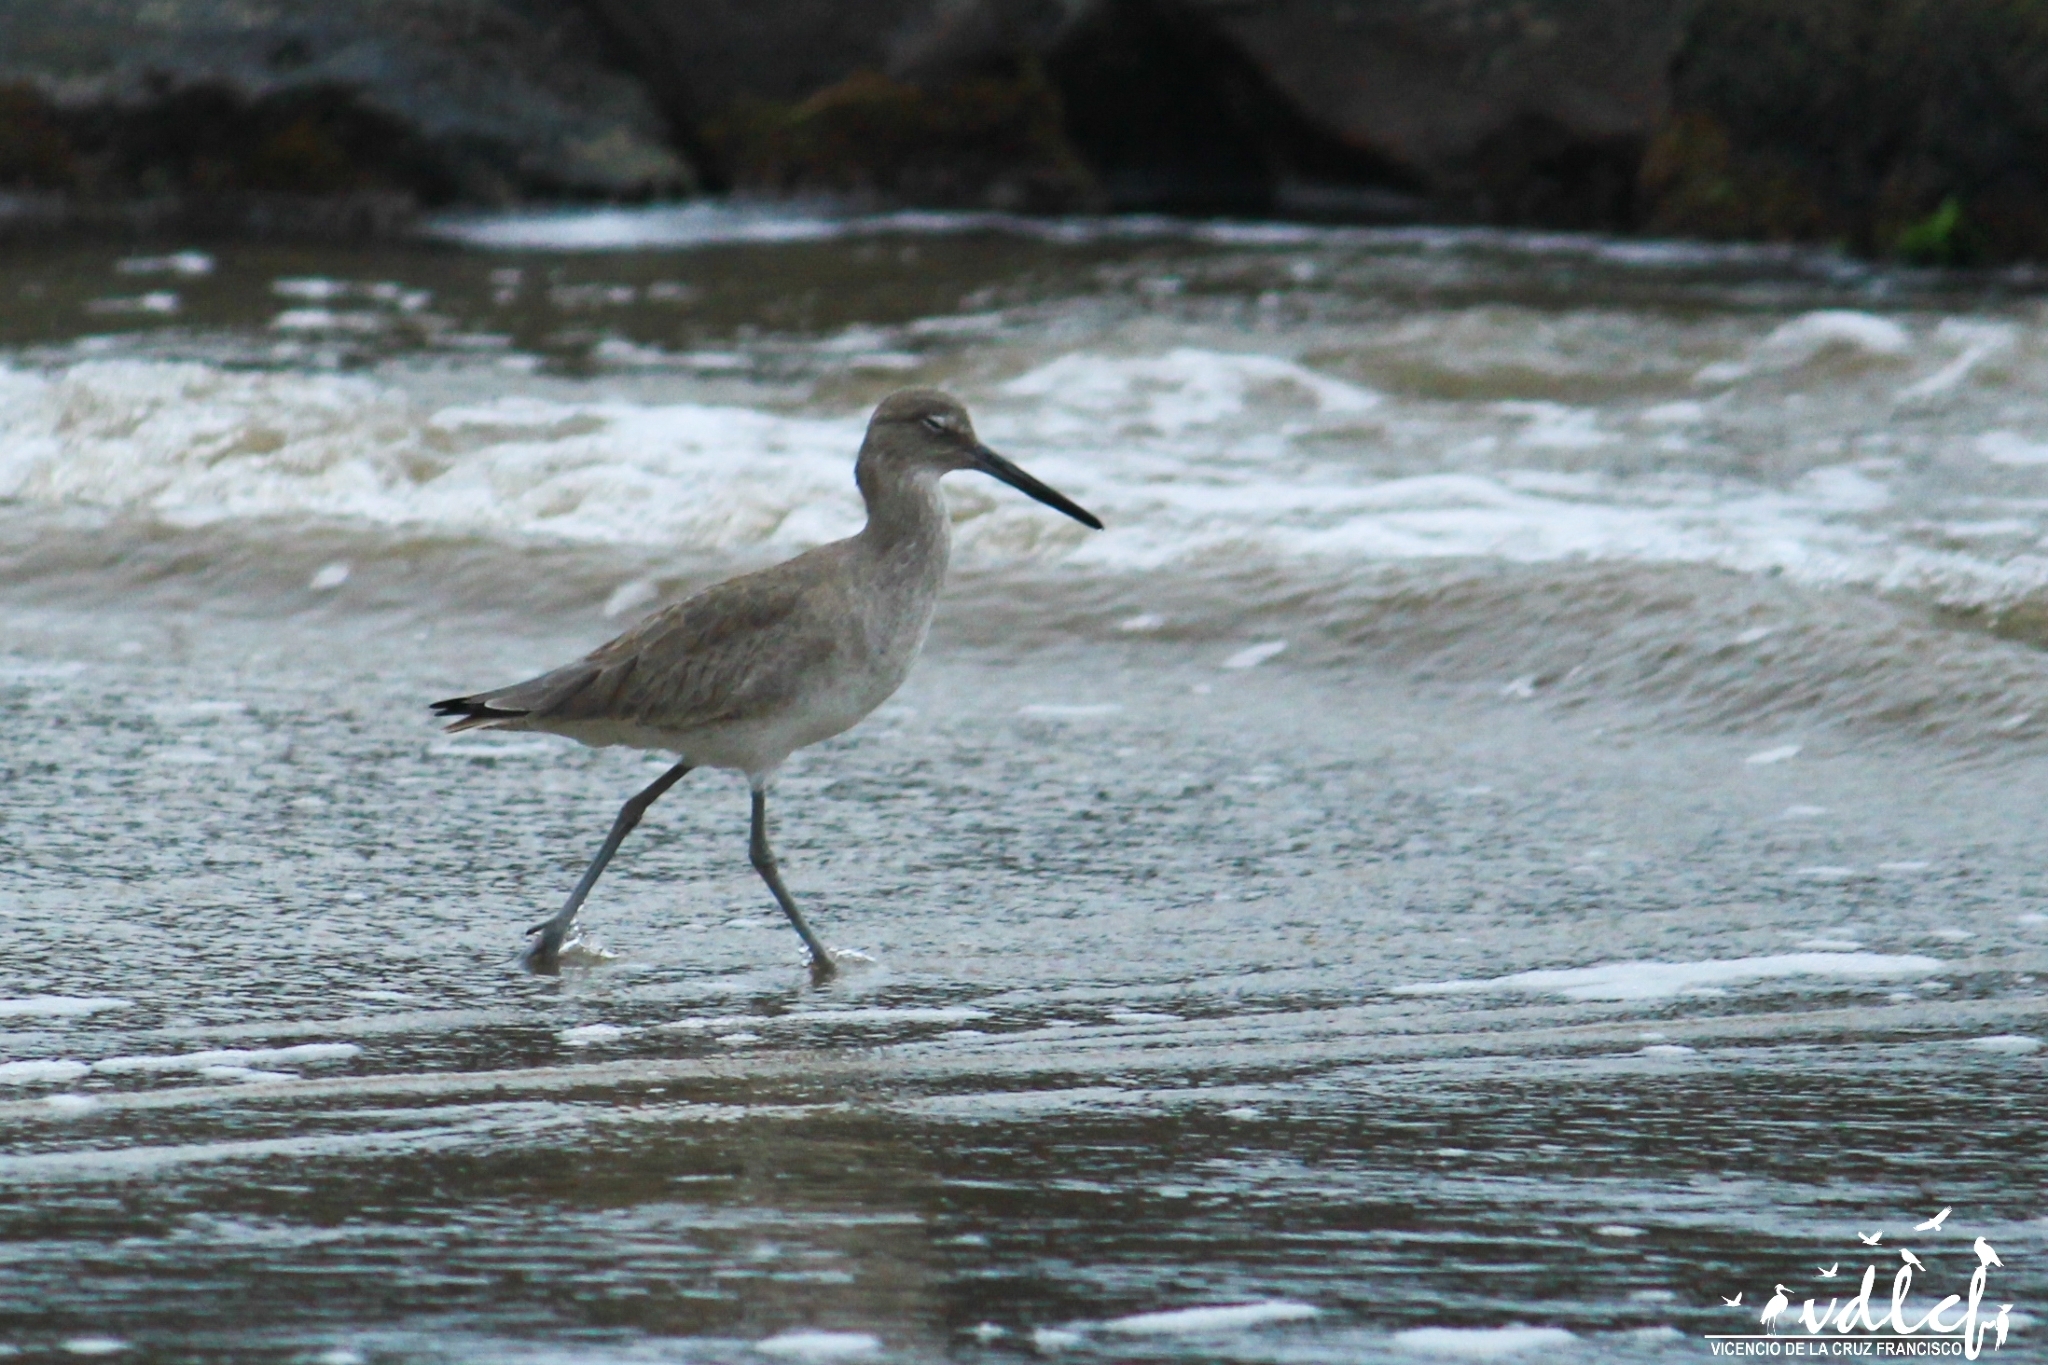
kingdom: Animalia
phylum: Chordata
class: Aves
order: Charadriiformes
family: Scolopacidae
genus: Tringa
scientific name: Tringa semipalmata
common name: Willet
